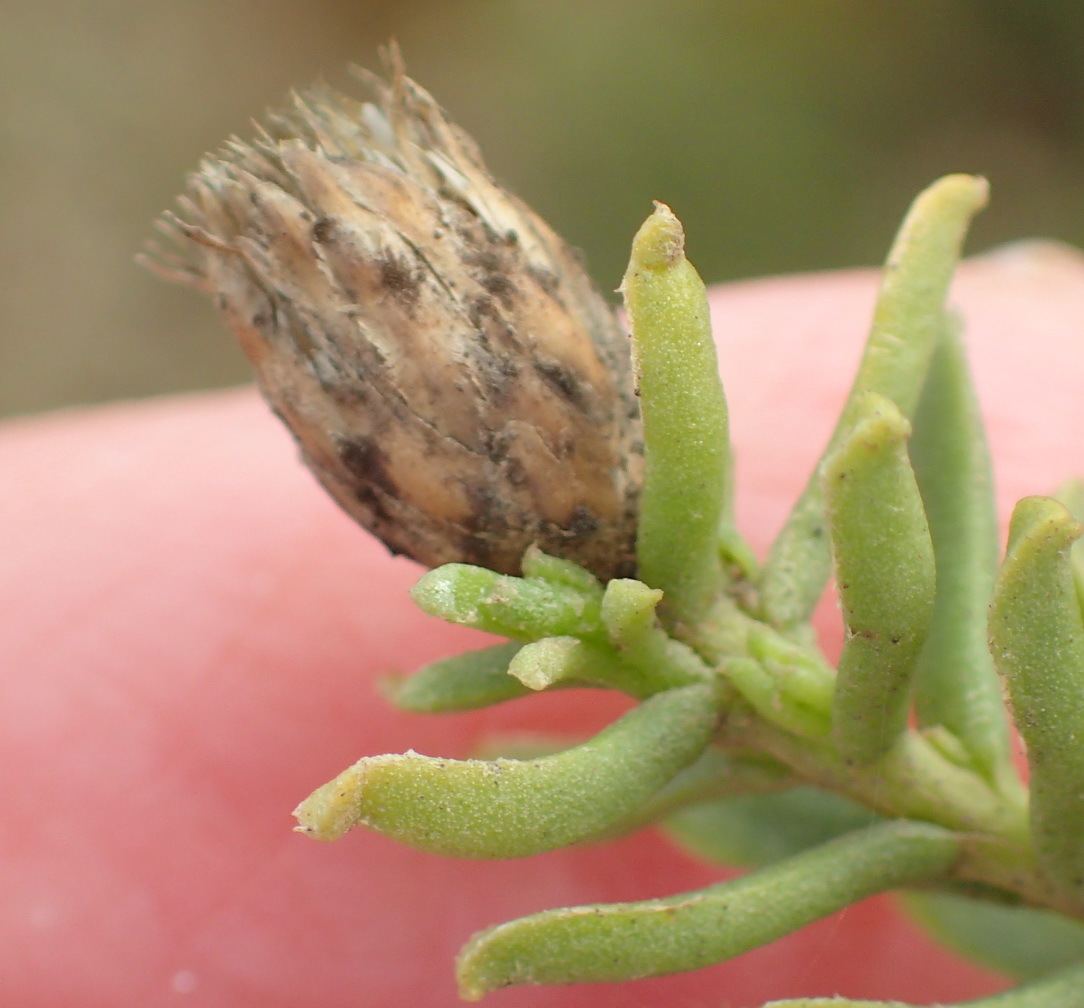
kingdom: Plantae
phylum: Tracheophyta
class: Magnoliopsida
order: Asterales
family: Asteraceae
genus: Oedera
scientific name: Oedera uniflora
